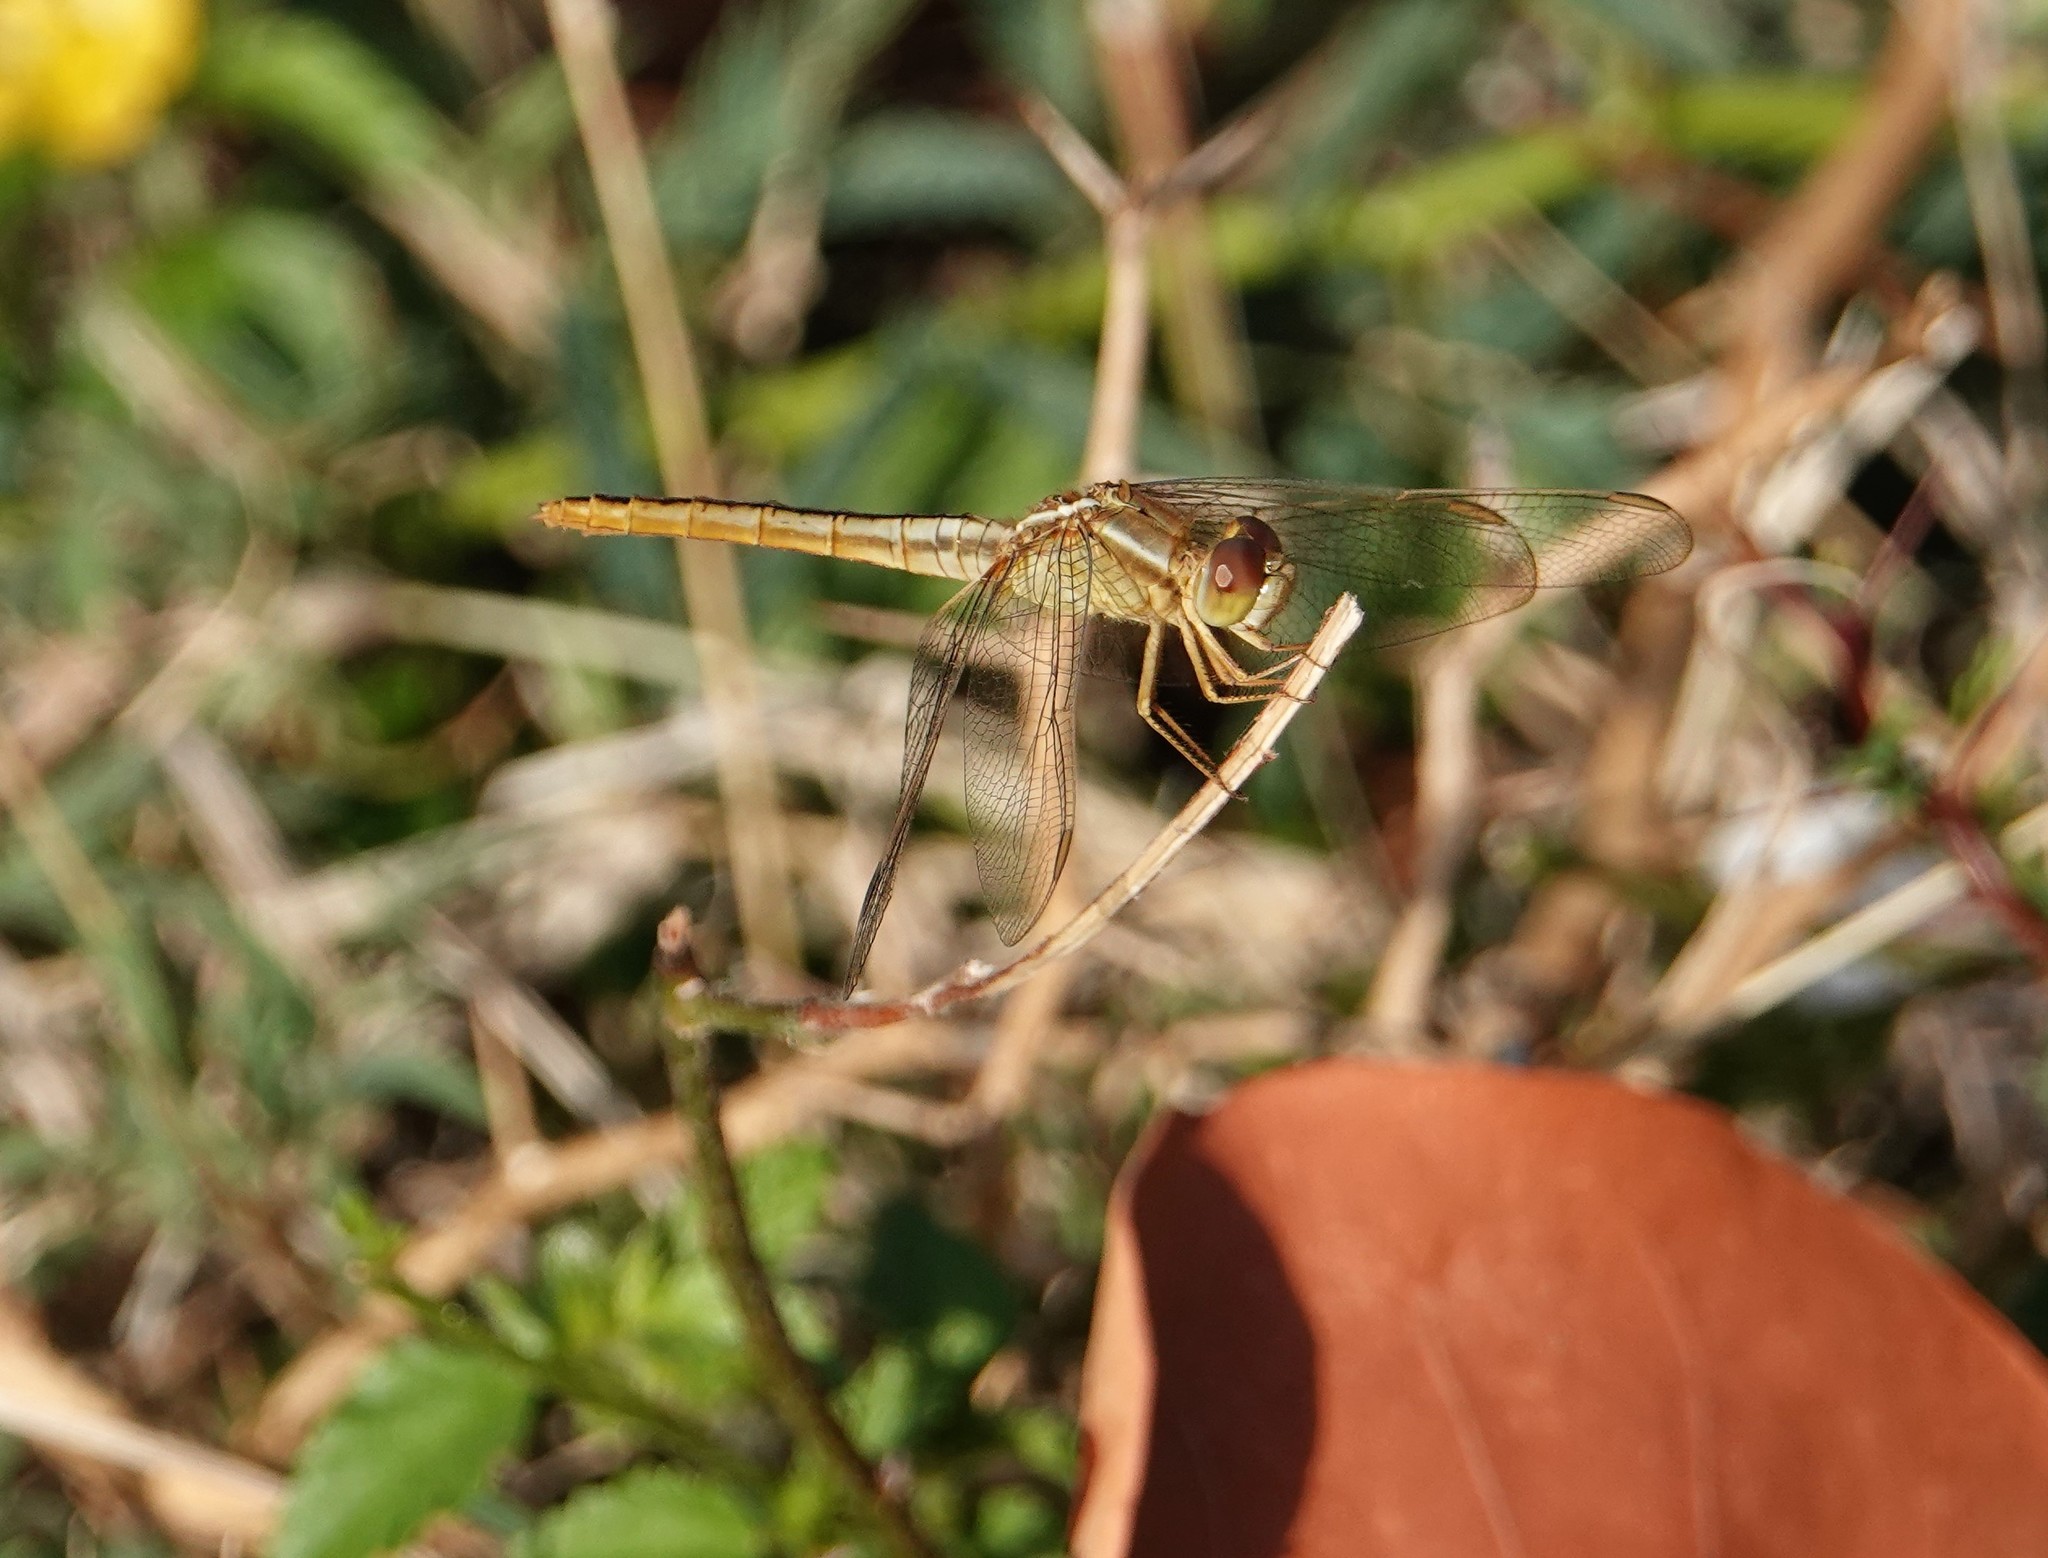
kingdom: Animalia
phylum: Arthropoda
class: Insecta
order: Odonata
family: Libellulidae
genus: Crocothemis
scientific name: Crocothemis servilia
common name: Scarlet skimmer
